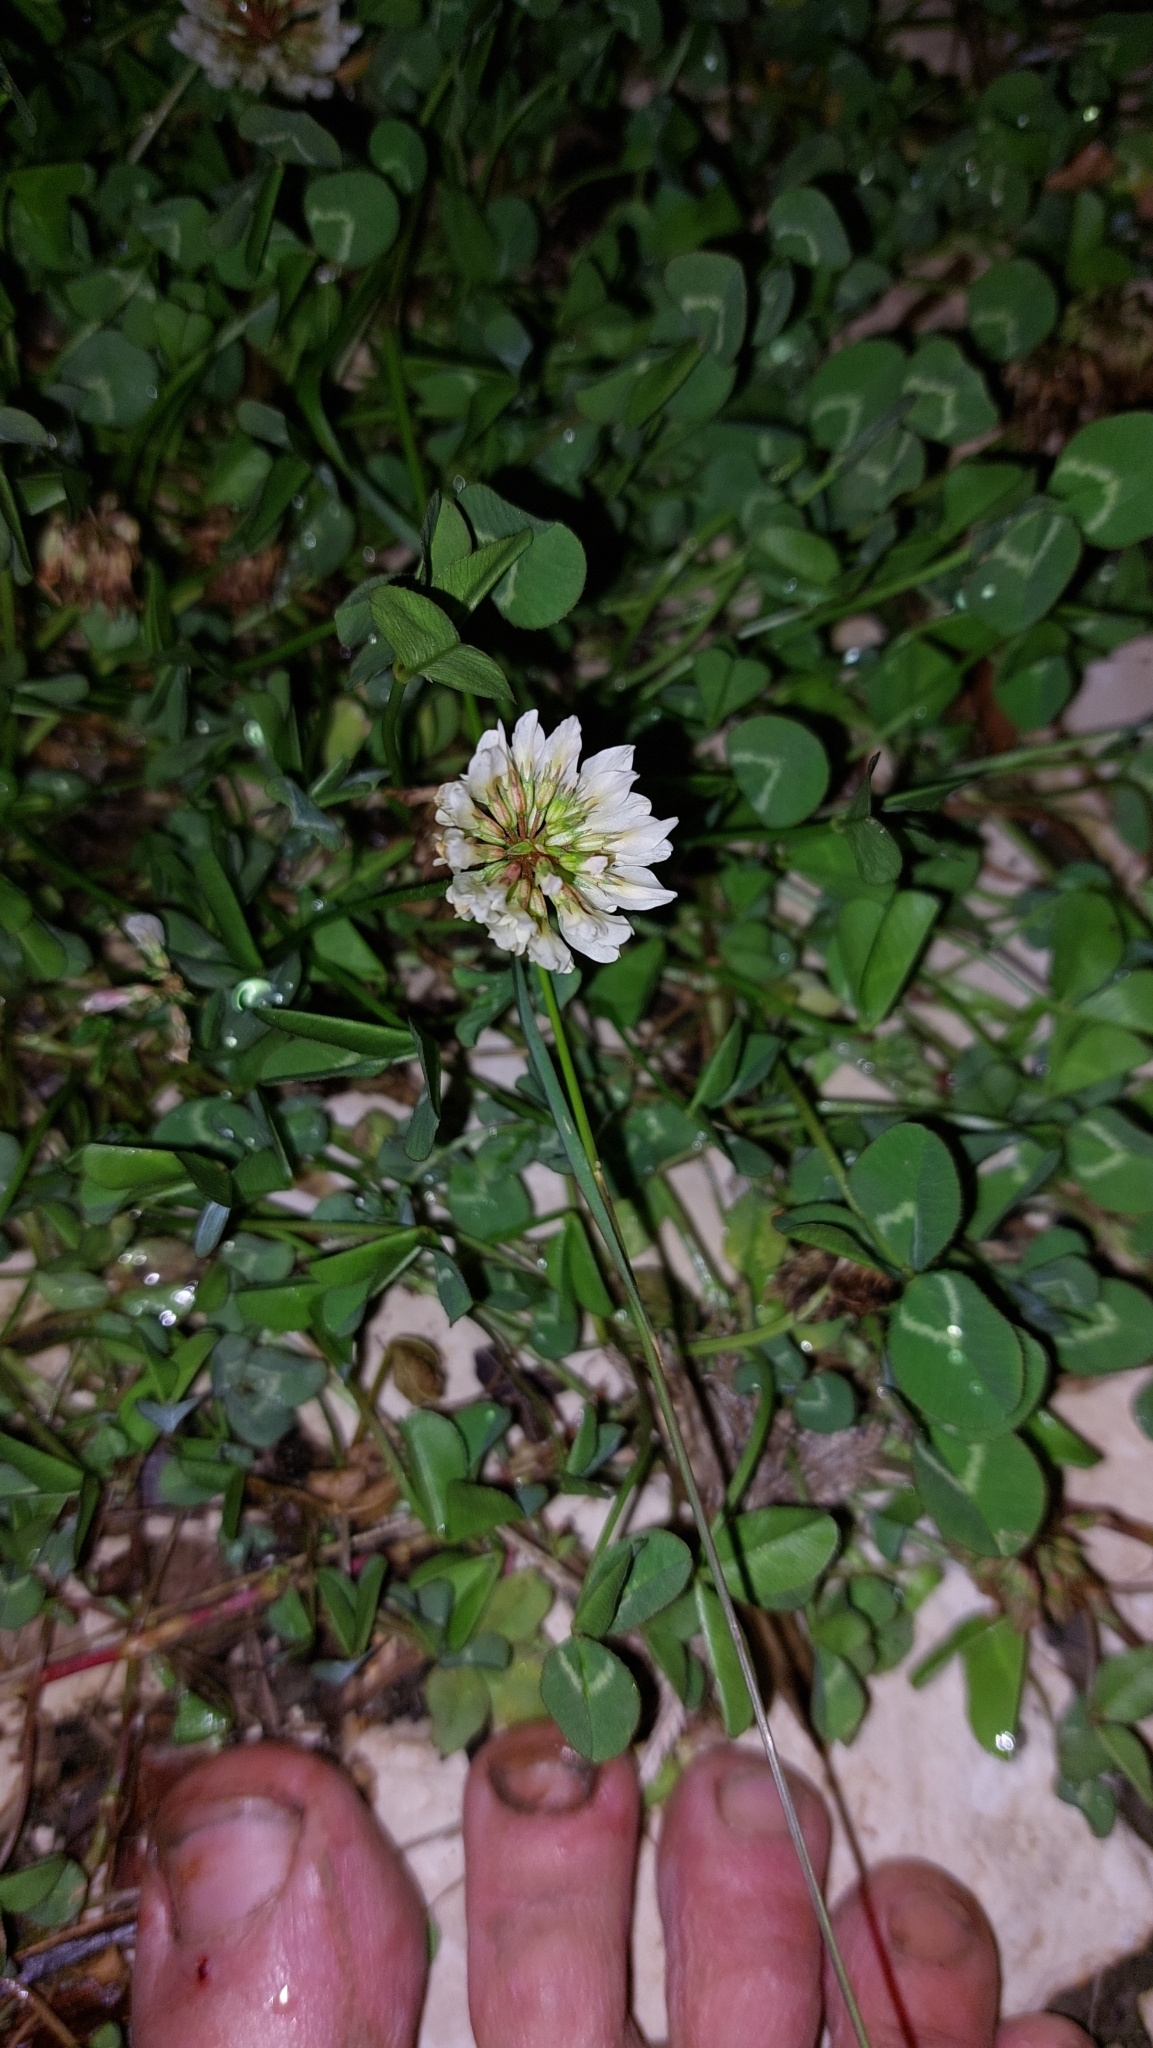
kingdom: Plantae
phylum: Tracheophyta
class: Magnoliopsida
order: Fabales
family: Fabaceae
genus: Trifolium
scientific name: Trifolium repens
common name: White clover
